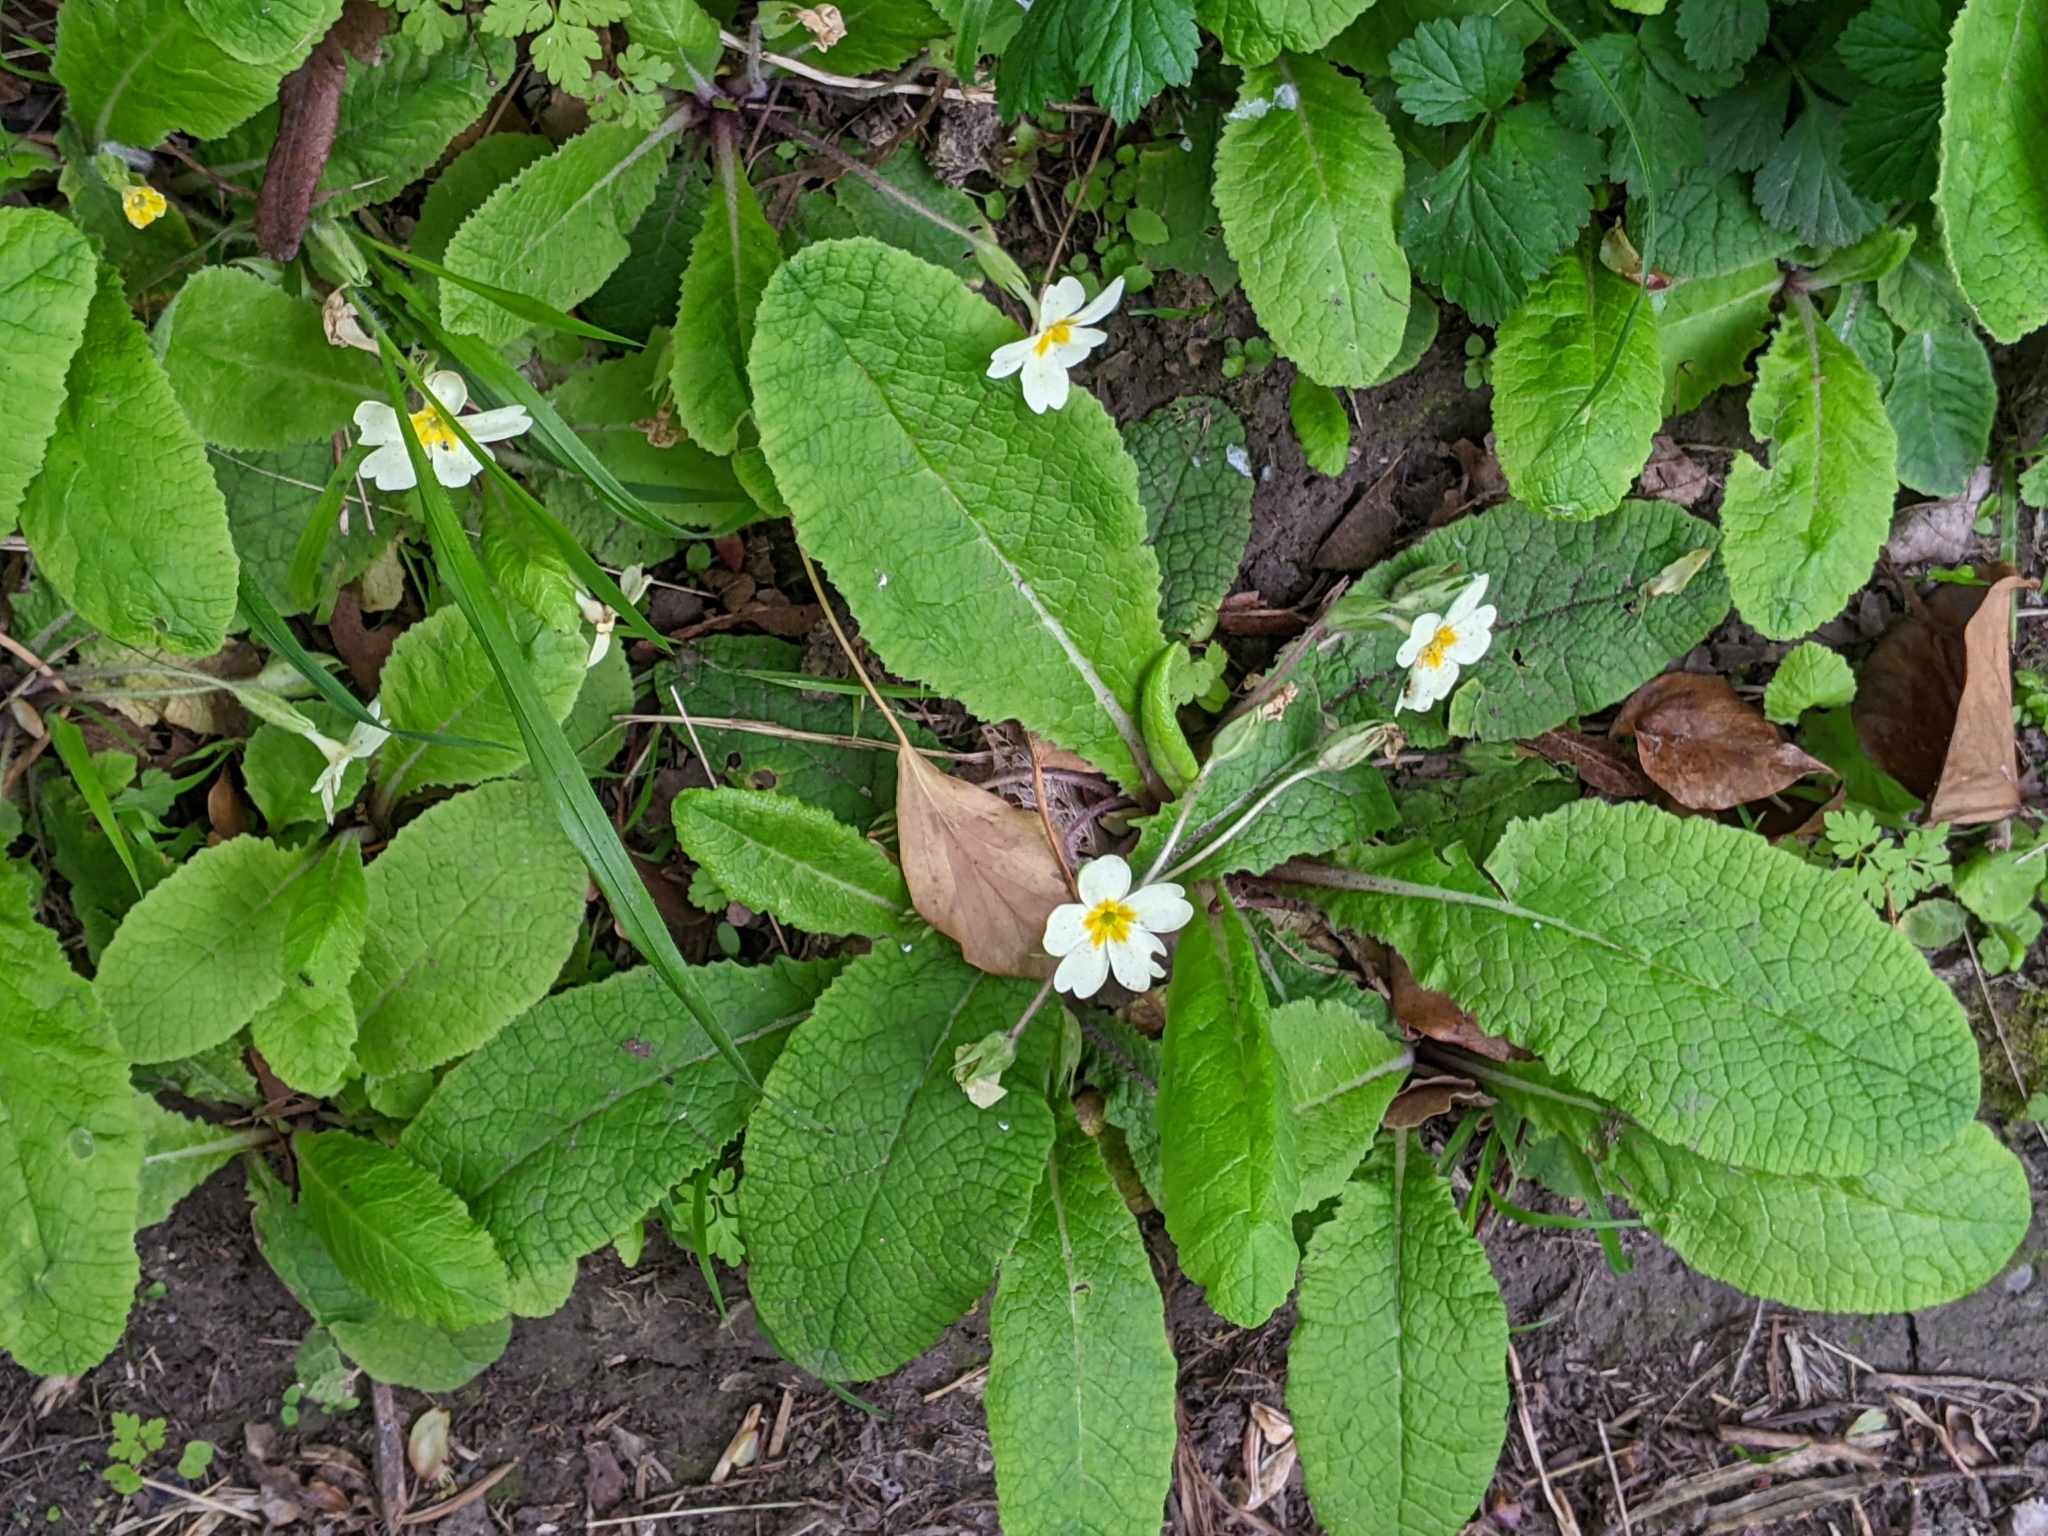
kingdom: Plantae
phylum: Tracheophyta
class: Magnoliopsida
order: Ericales
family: Primulaceae
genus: Primula
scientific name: Primula vulgaris
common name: Primrose
